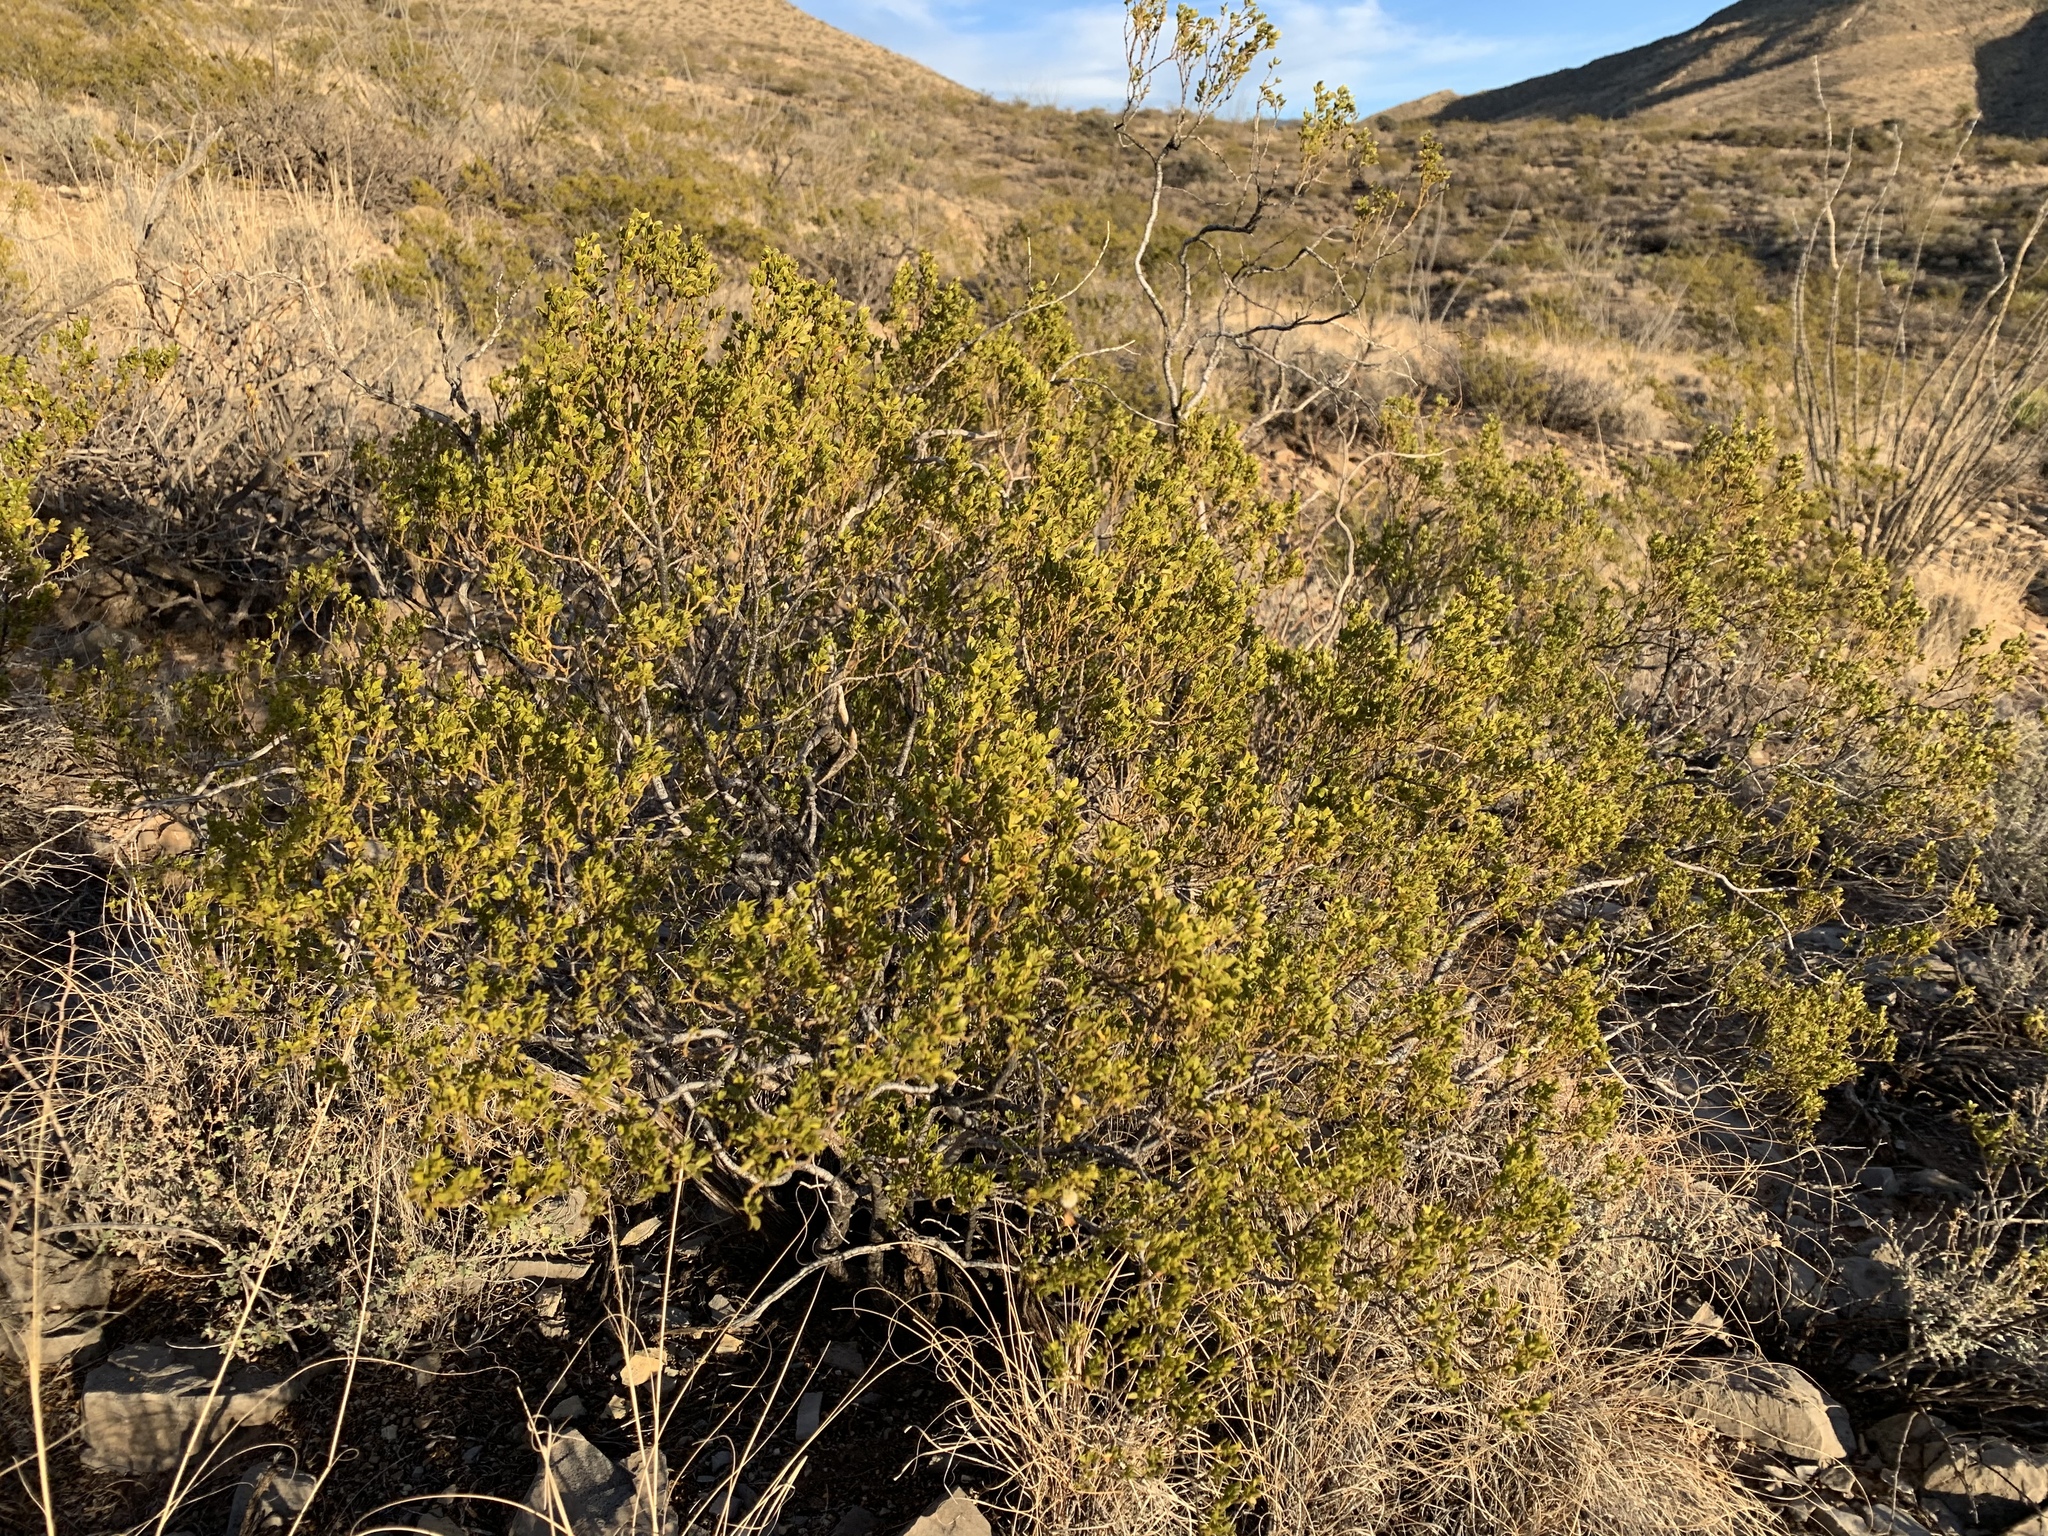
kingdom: Plantae
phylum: Tracheophyta
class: Magnoliopsida
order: Zygophyllales
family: Zygophyllaceae
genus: Larrea
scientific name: Larrea tridentata
